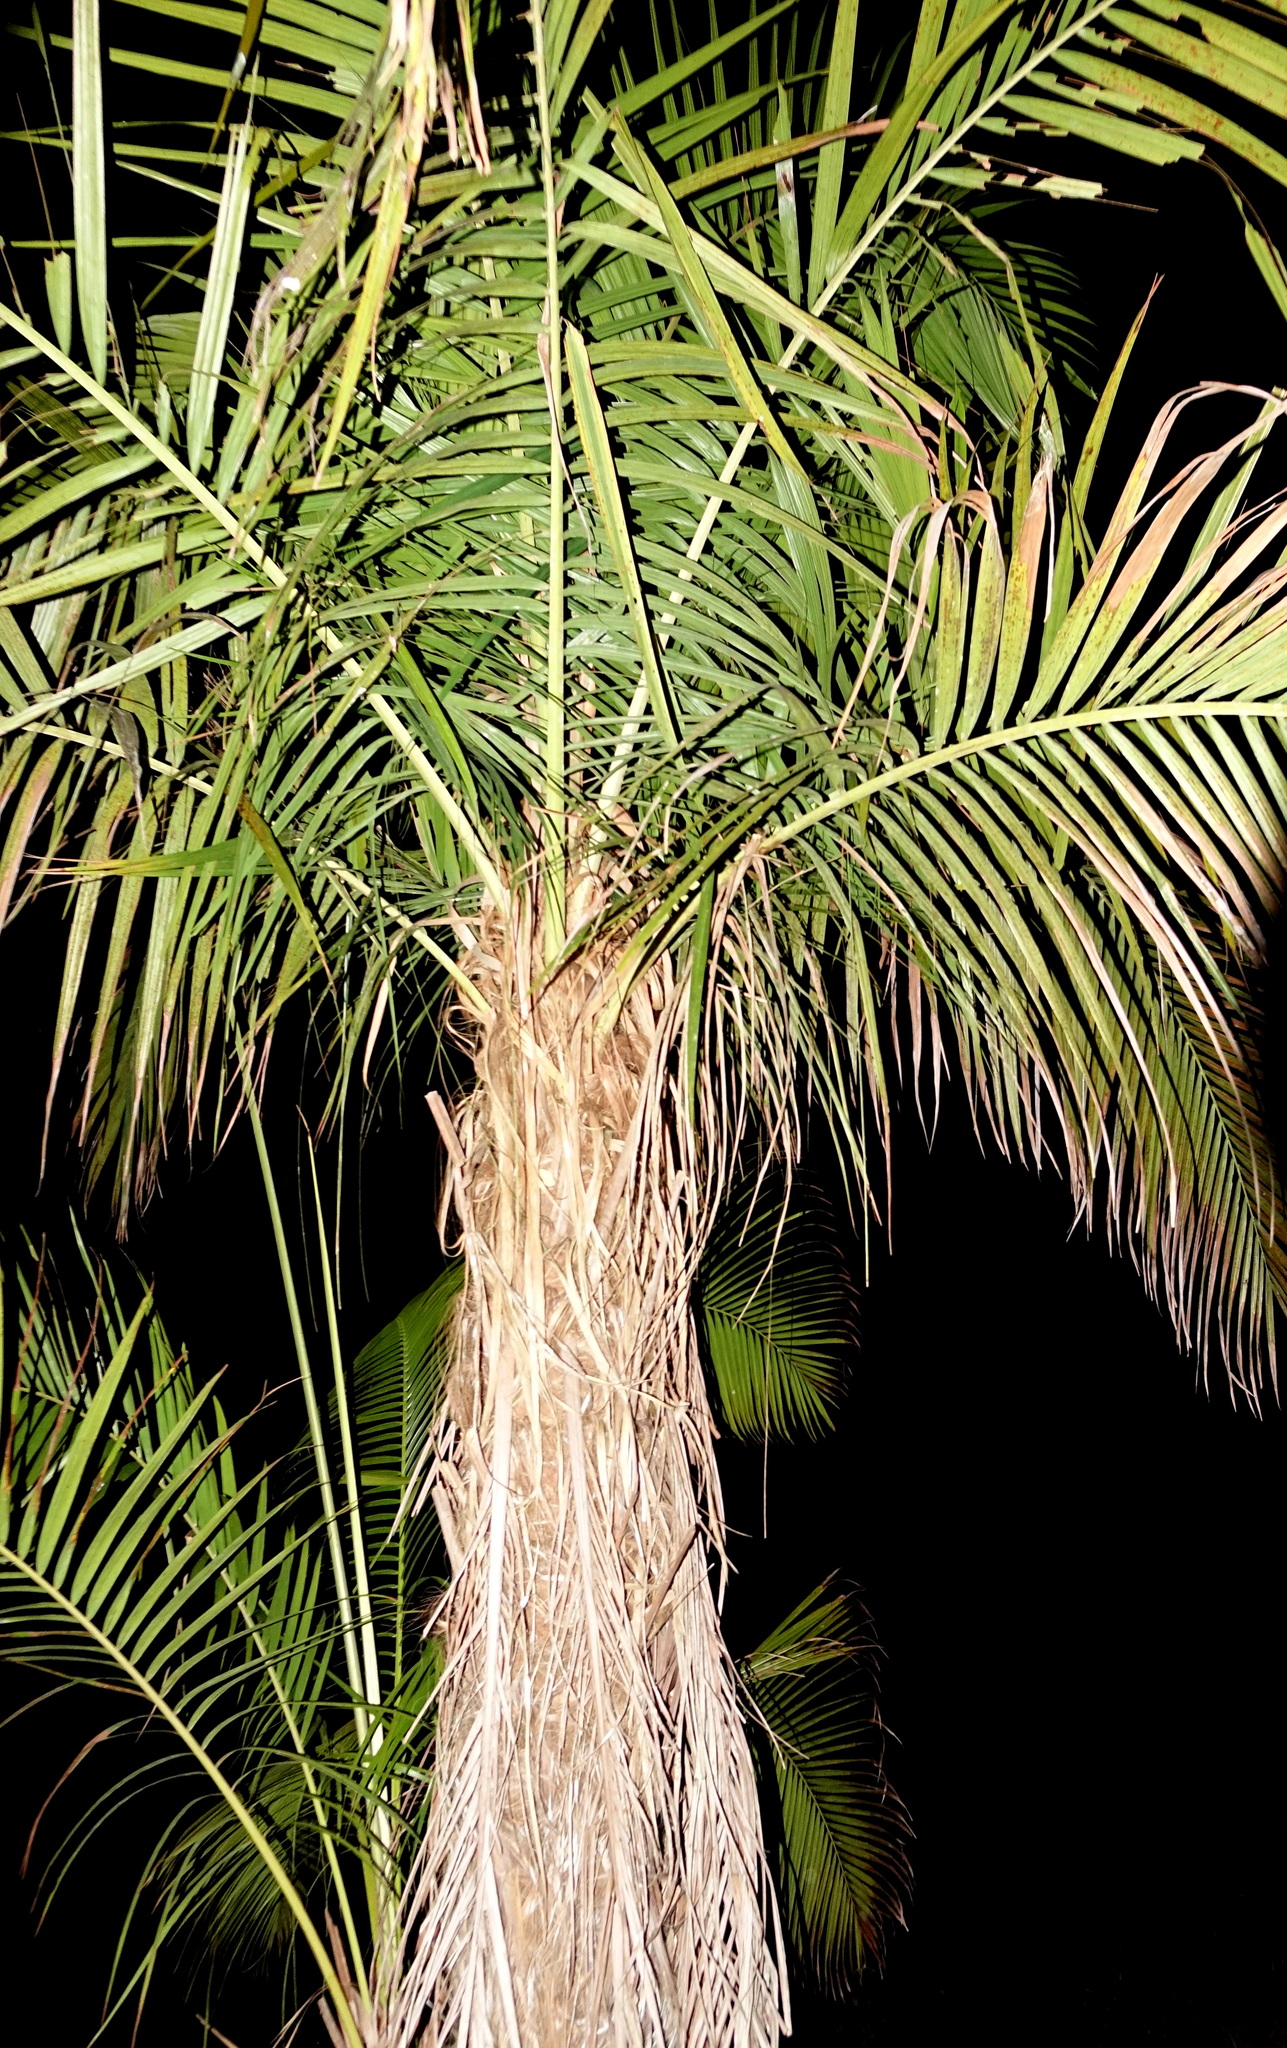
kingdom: Plantae
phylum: Tracheophyta
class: Liliopsida
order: Arecales
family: Arecaceae
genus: Dypsis
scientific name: Dypsis fibrosa
